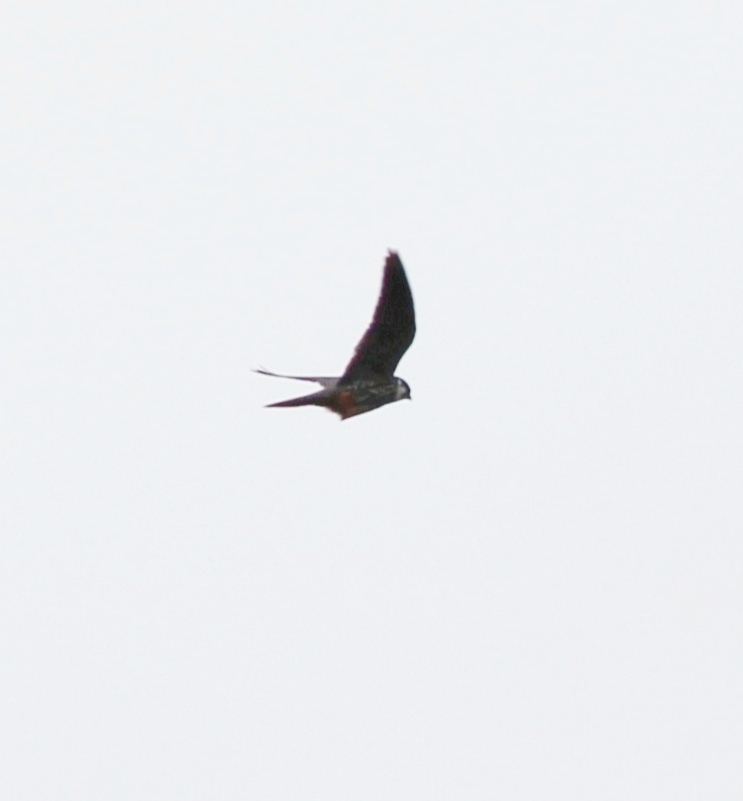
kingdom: Animalia
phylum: Chordata
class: Aves
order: Falconiformes
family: Falconidae
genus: Falco
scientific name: Falco subbuteo
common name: Eurasian hobby
